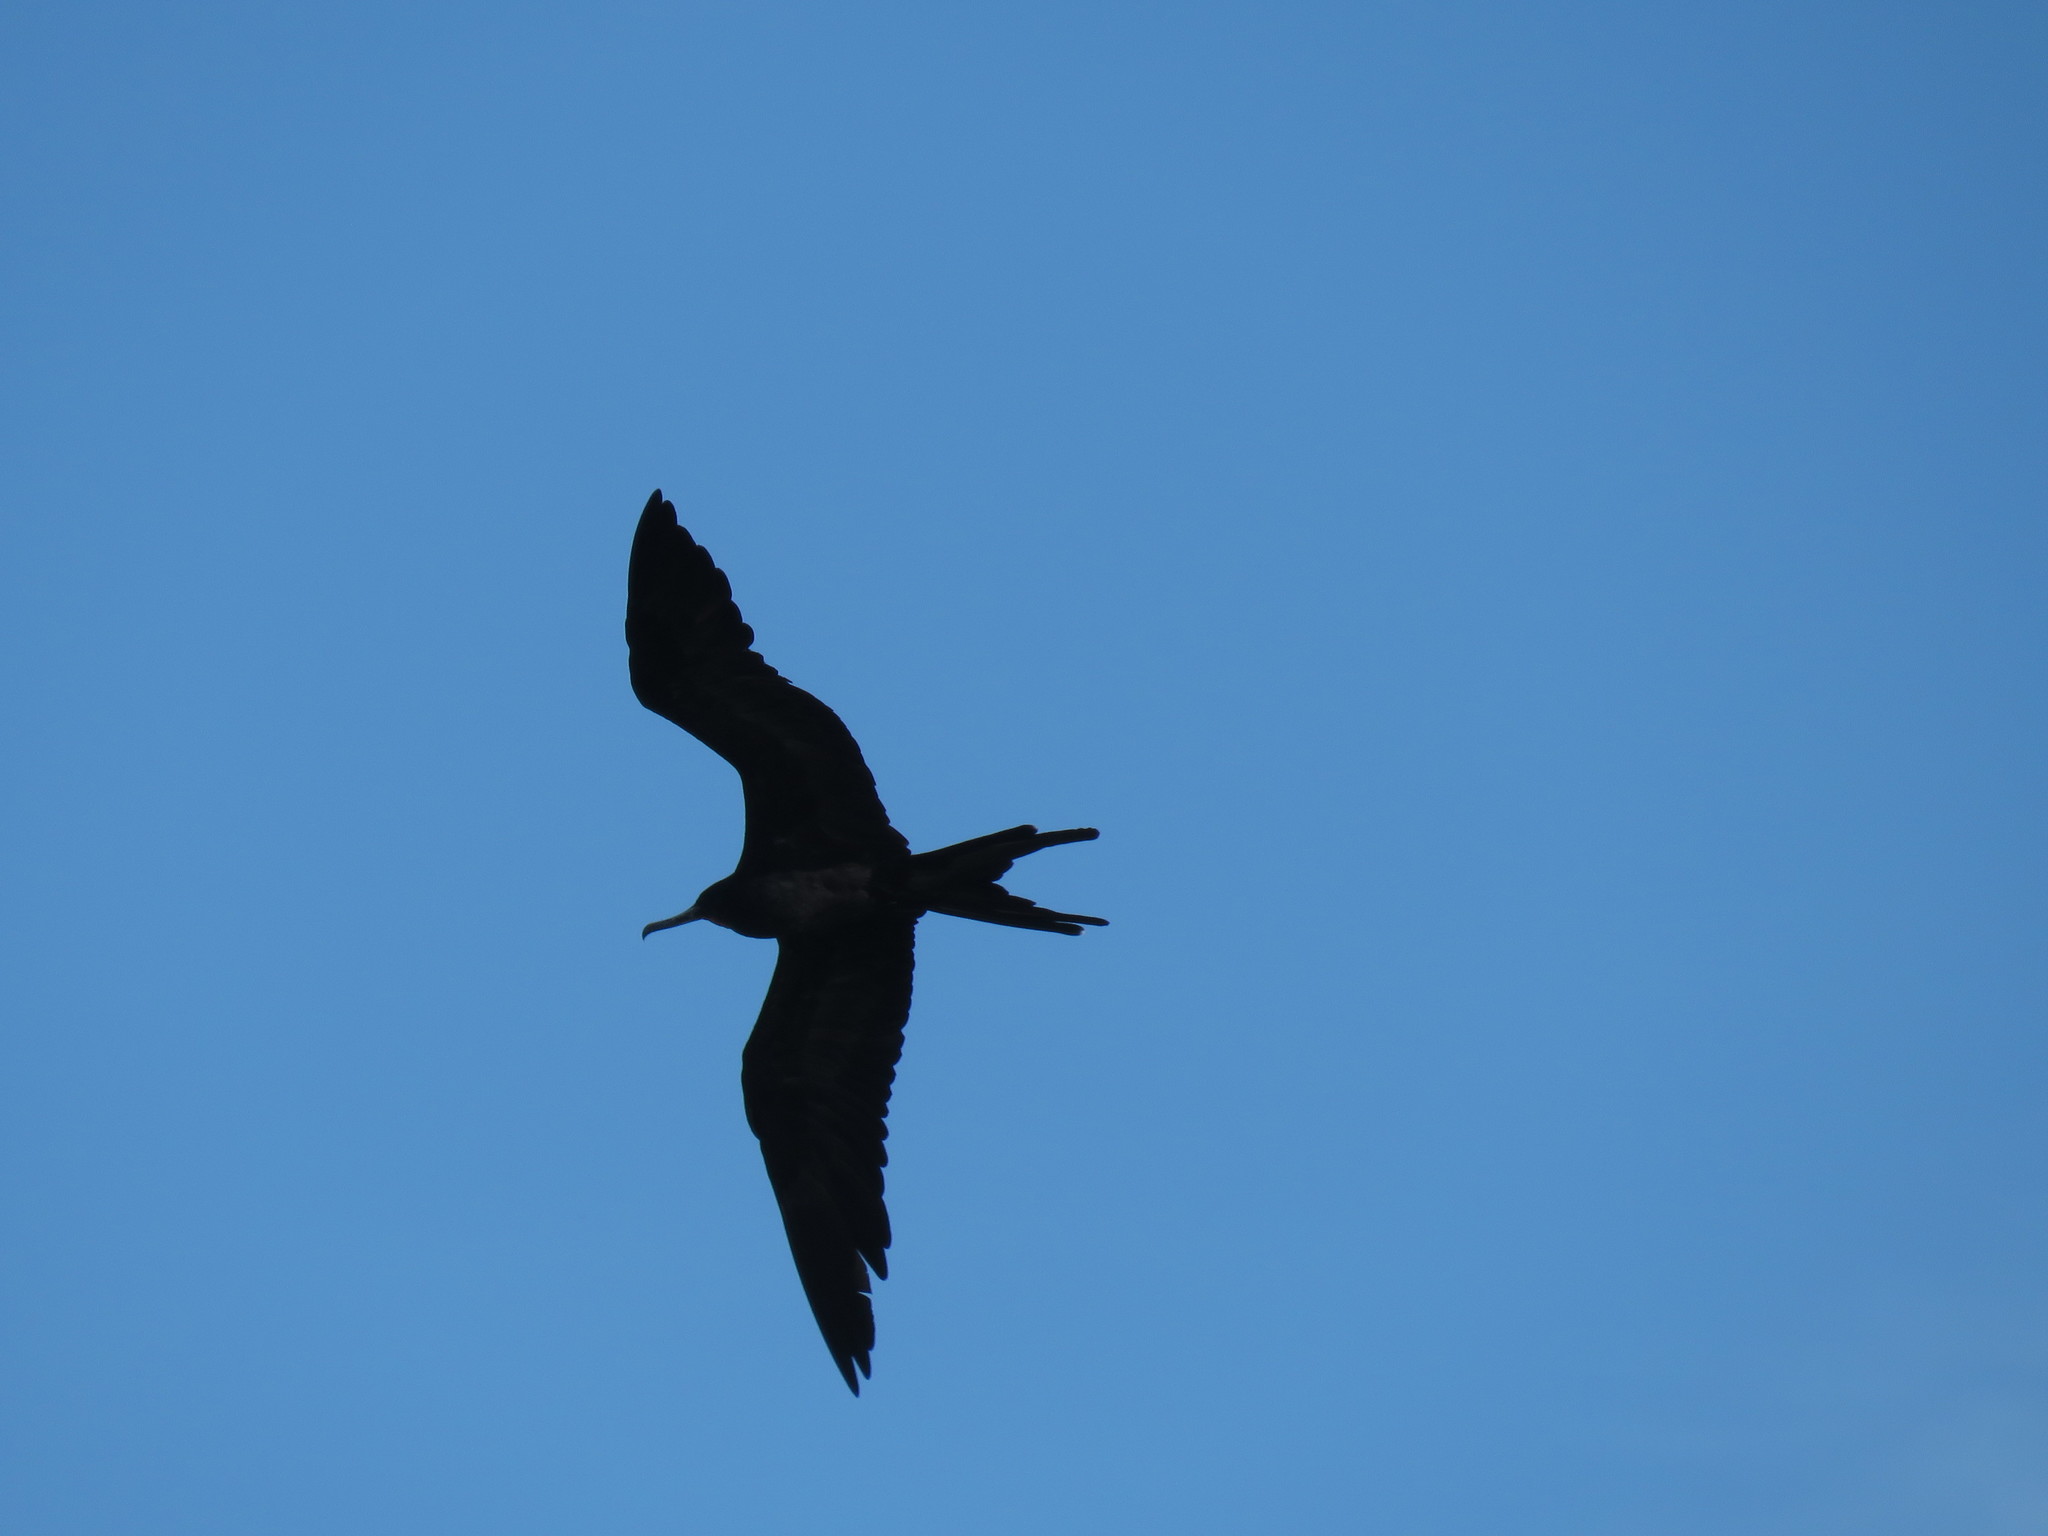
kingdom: Animalia
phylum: Chordata
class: Aves
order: Suliformes
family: Fregatidae
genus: Fregata
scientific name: Fregata magnificens
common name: Magnificent frigatebird
